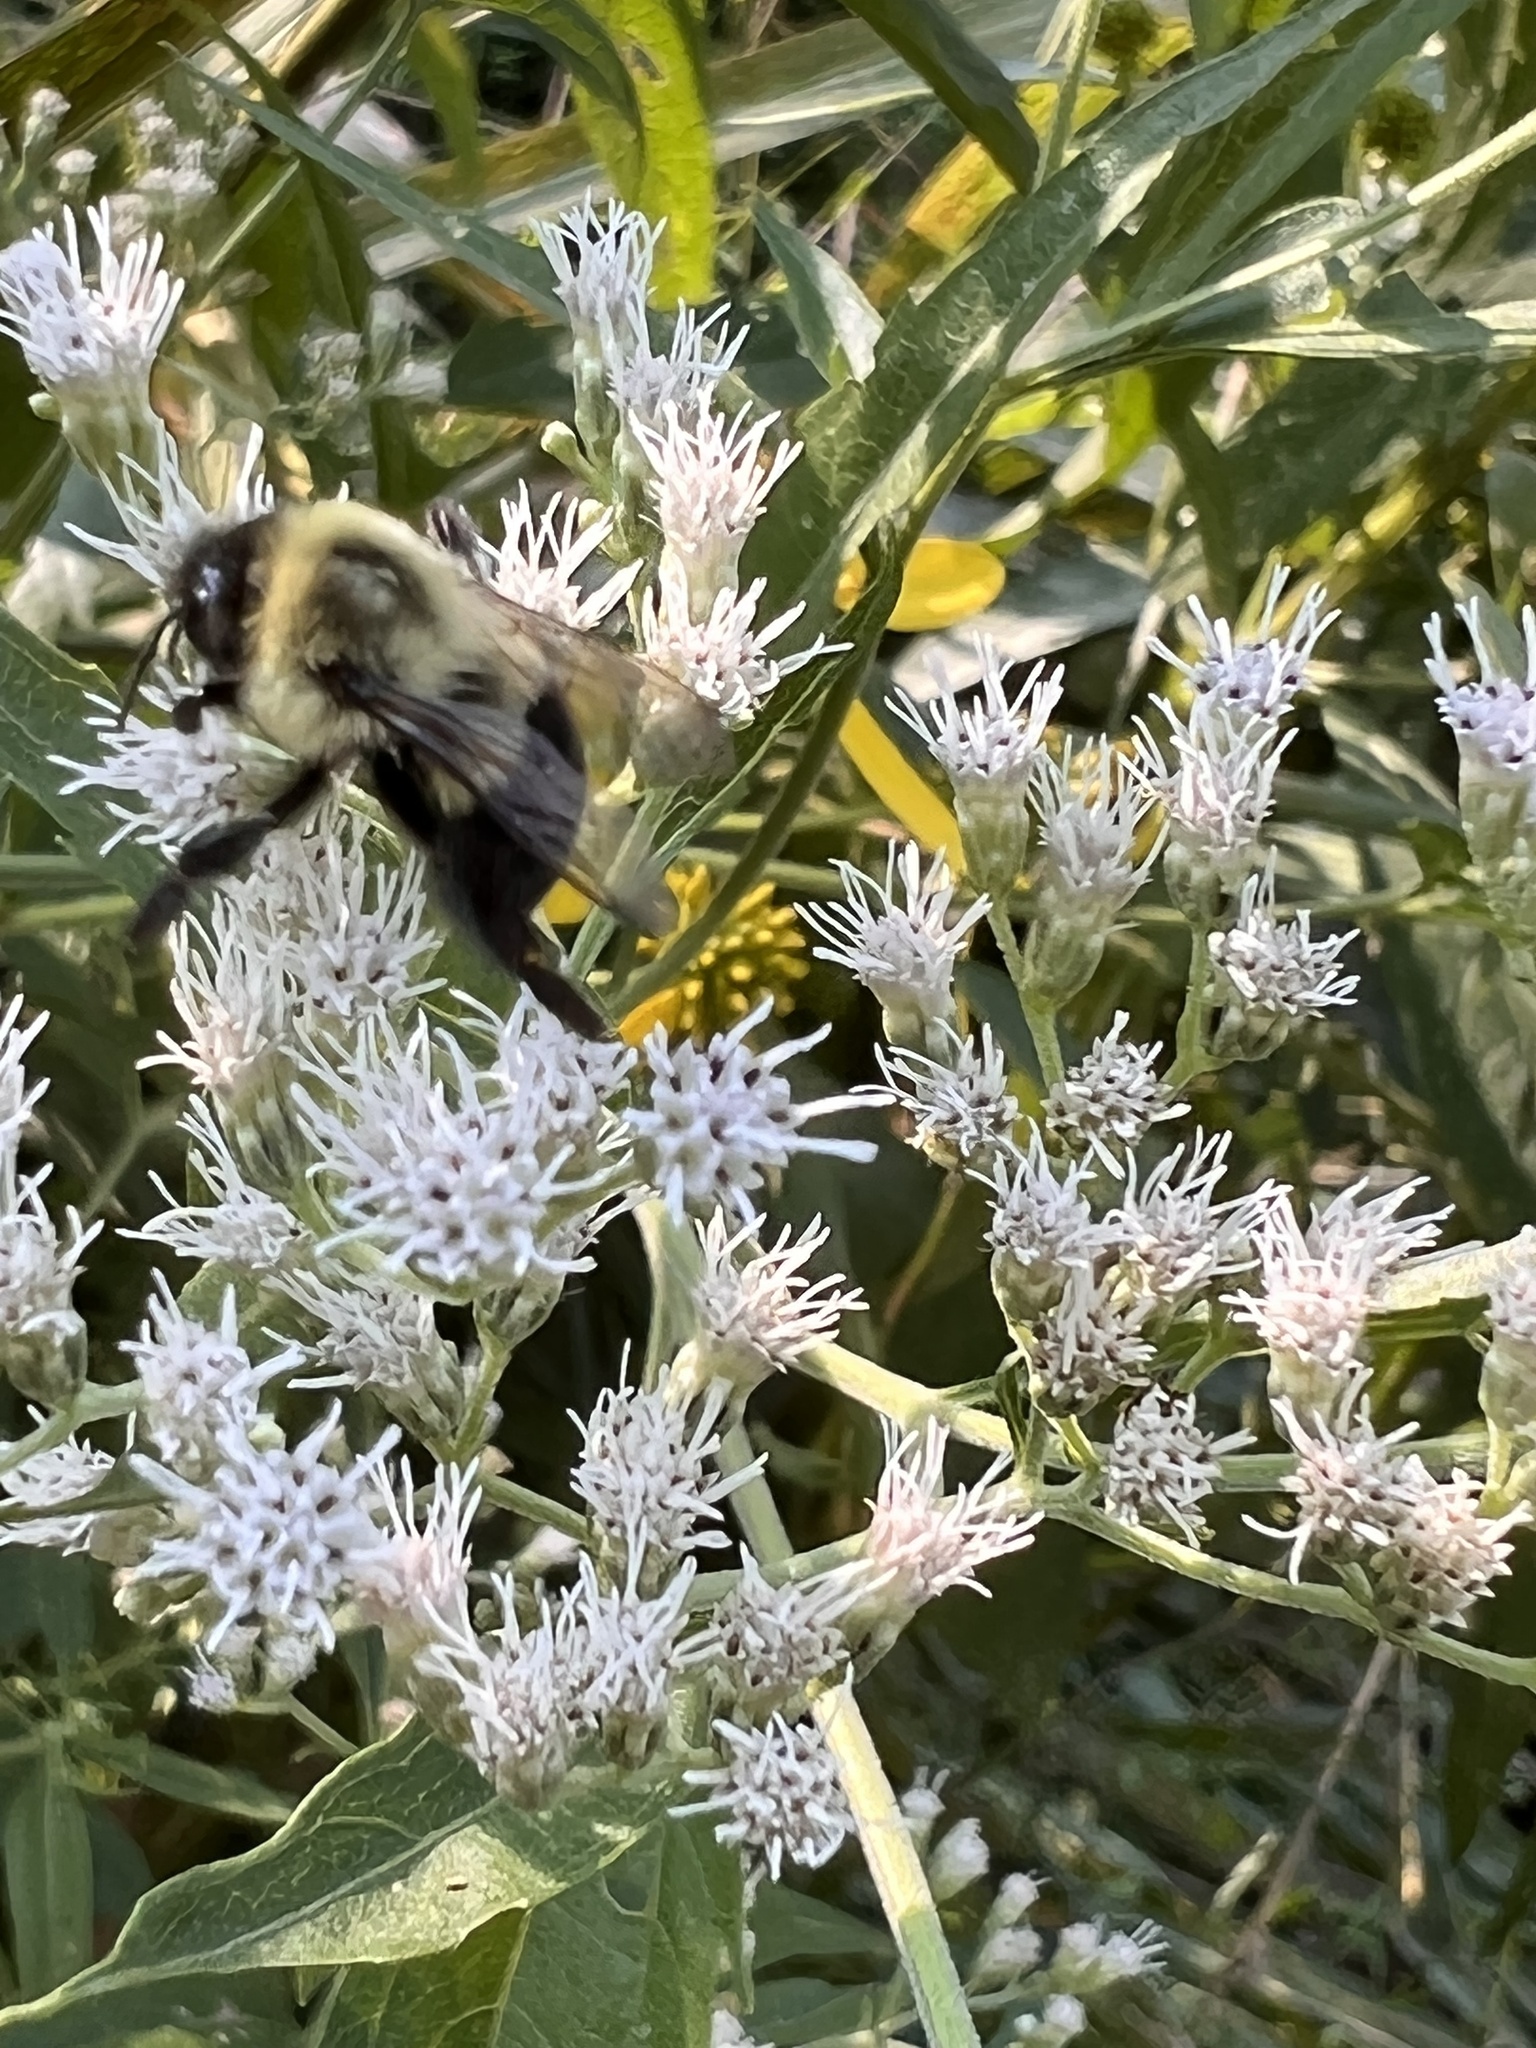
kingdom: Animalia
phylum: Arthropoda
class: Insecta
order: Hymenoptera
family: Apidae
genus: Bombus
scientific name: Bombus impatiens
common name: Common eastern bumble bee
